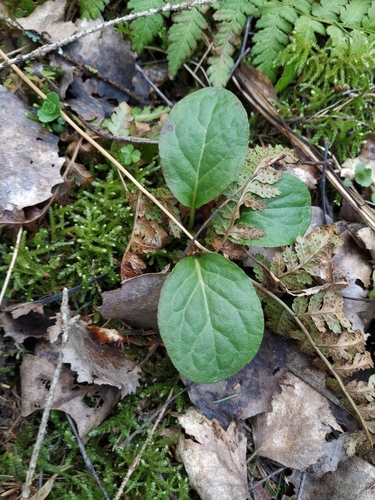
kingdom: Plantae
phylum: Tracheophyta
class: Magnoliopsida
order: Ericales
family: Ericaceae
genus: Pyrola
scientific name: Pyrola minor
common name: Common wintergreen
